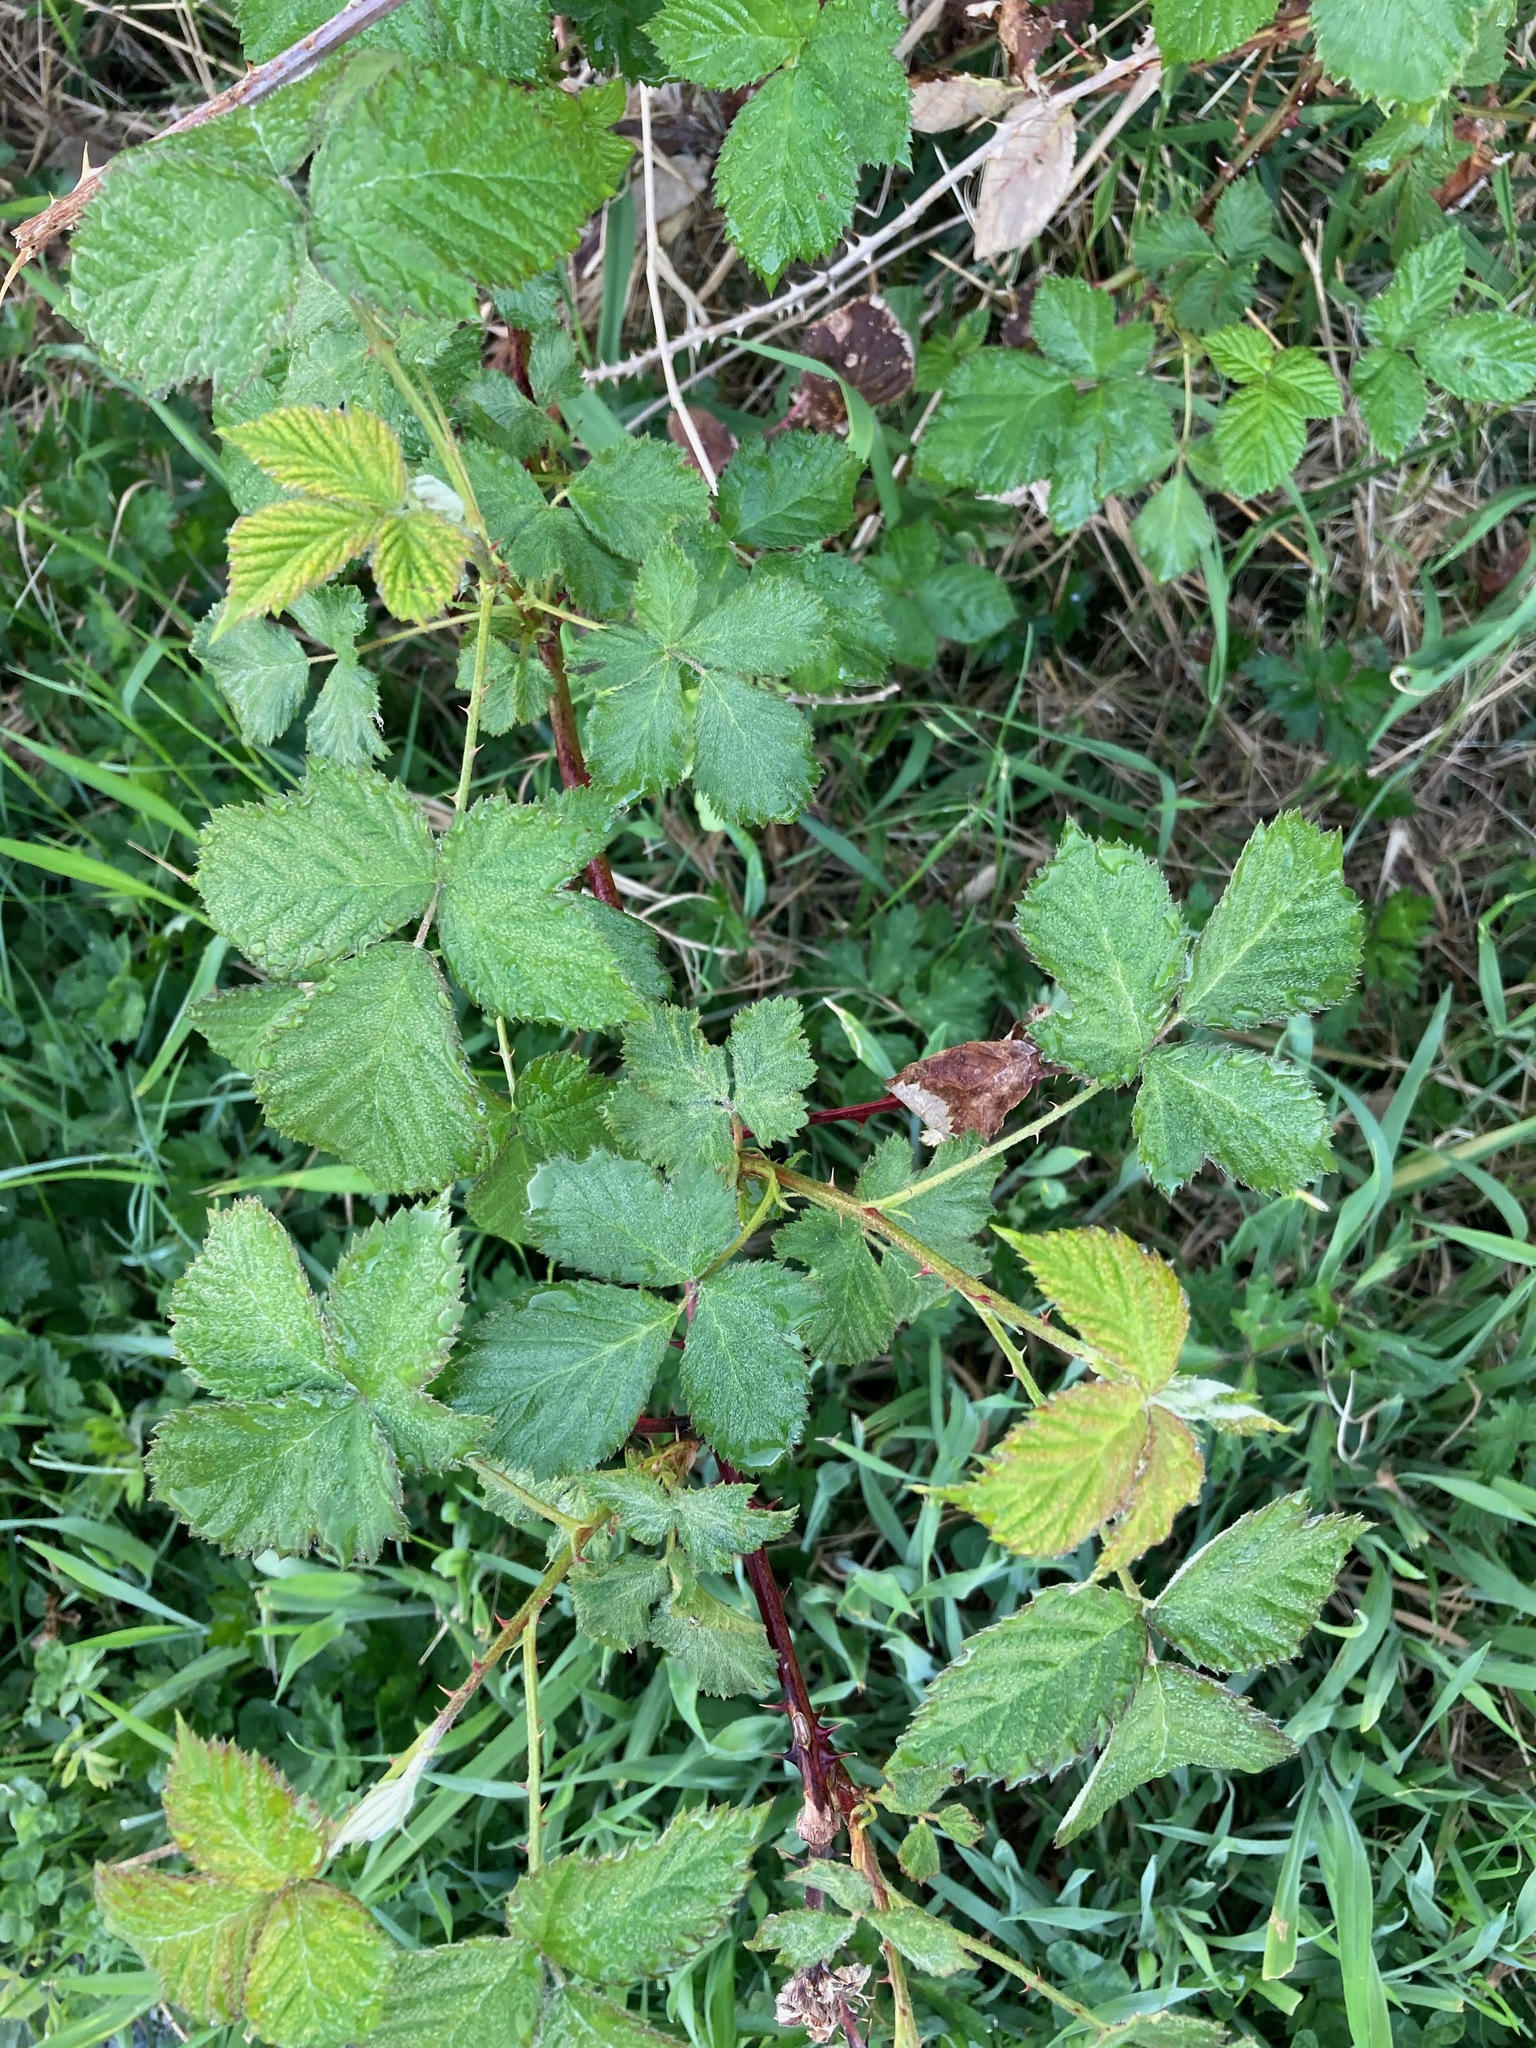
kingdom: Plantae
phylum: Tracheophyta
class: Magnoliopsida
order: Rosales
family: Rosaceae
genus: Rubus
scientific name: Rubus bifrons
